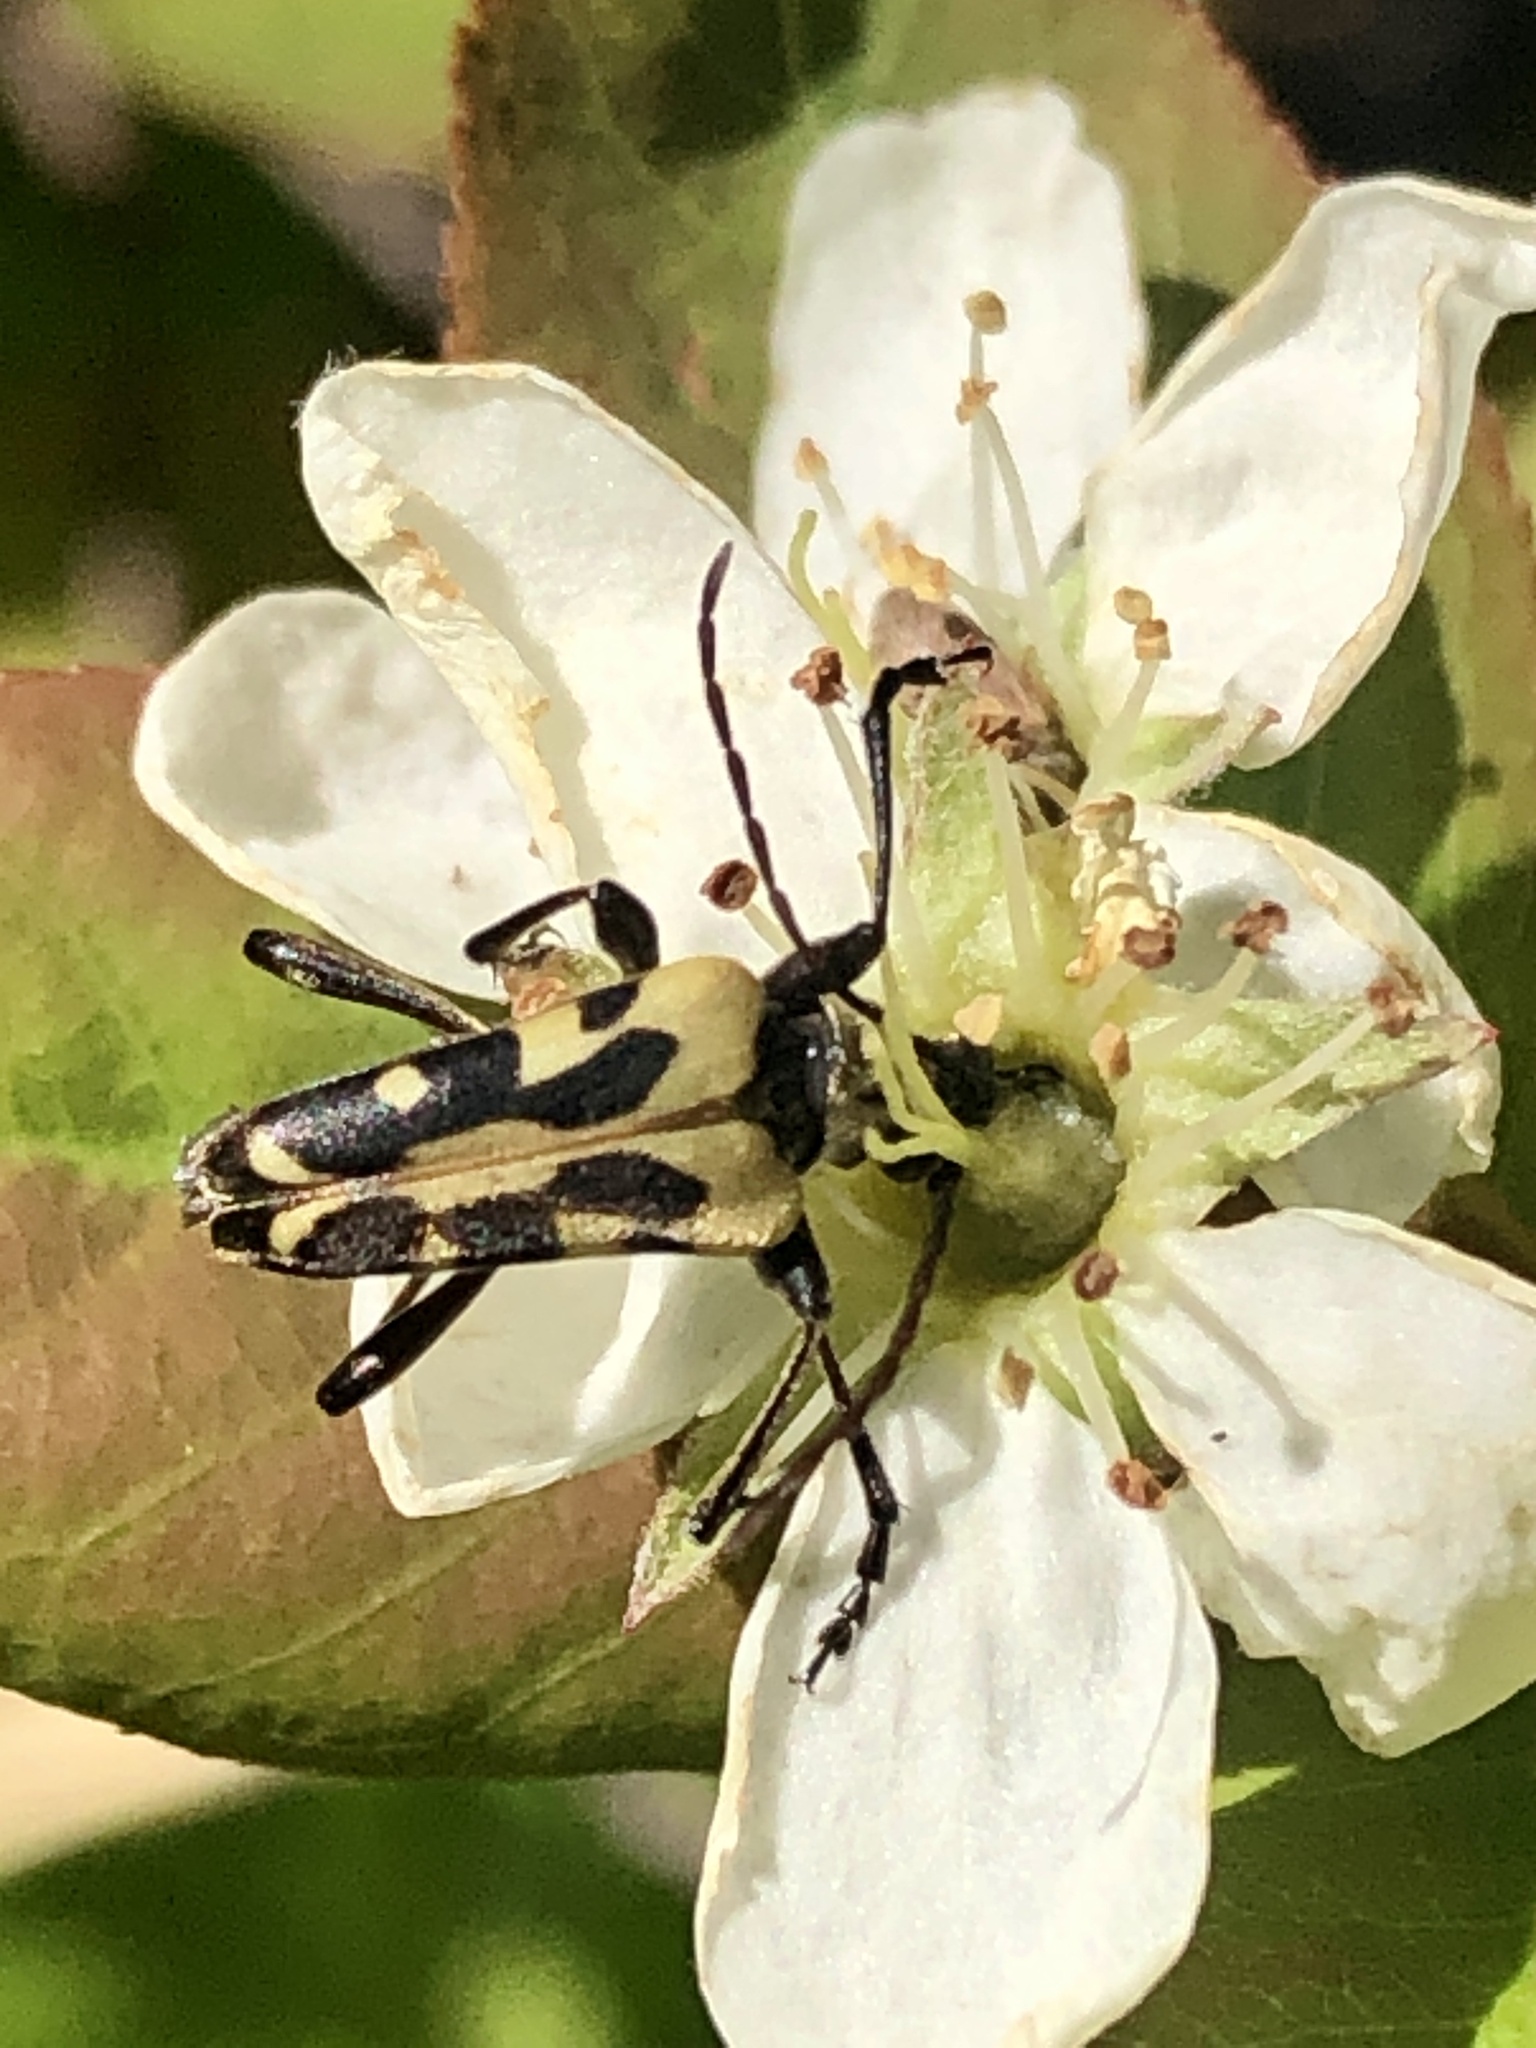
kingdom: Animalia
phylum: Arthropoda
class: Insecta
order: Coleoptera
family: Cerambycidae
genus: Evodinus
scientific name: Evodinus monticola
